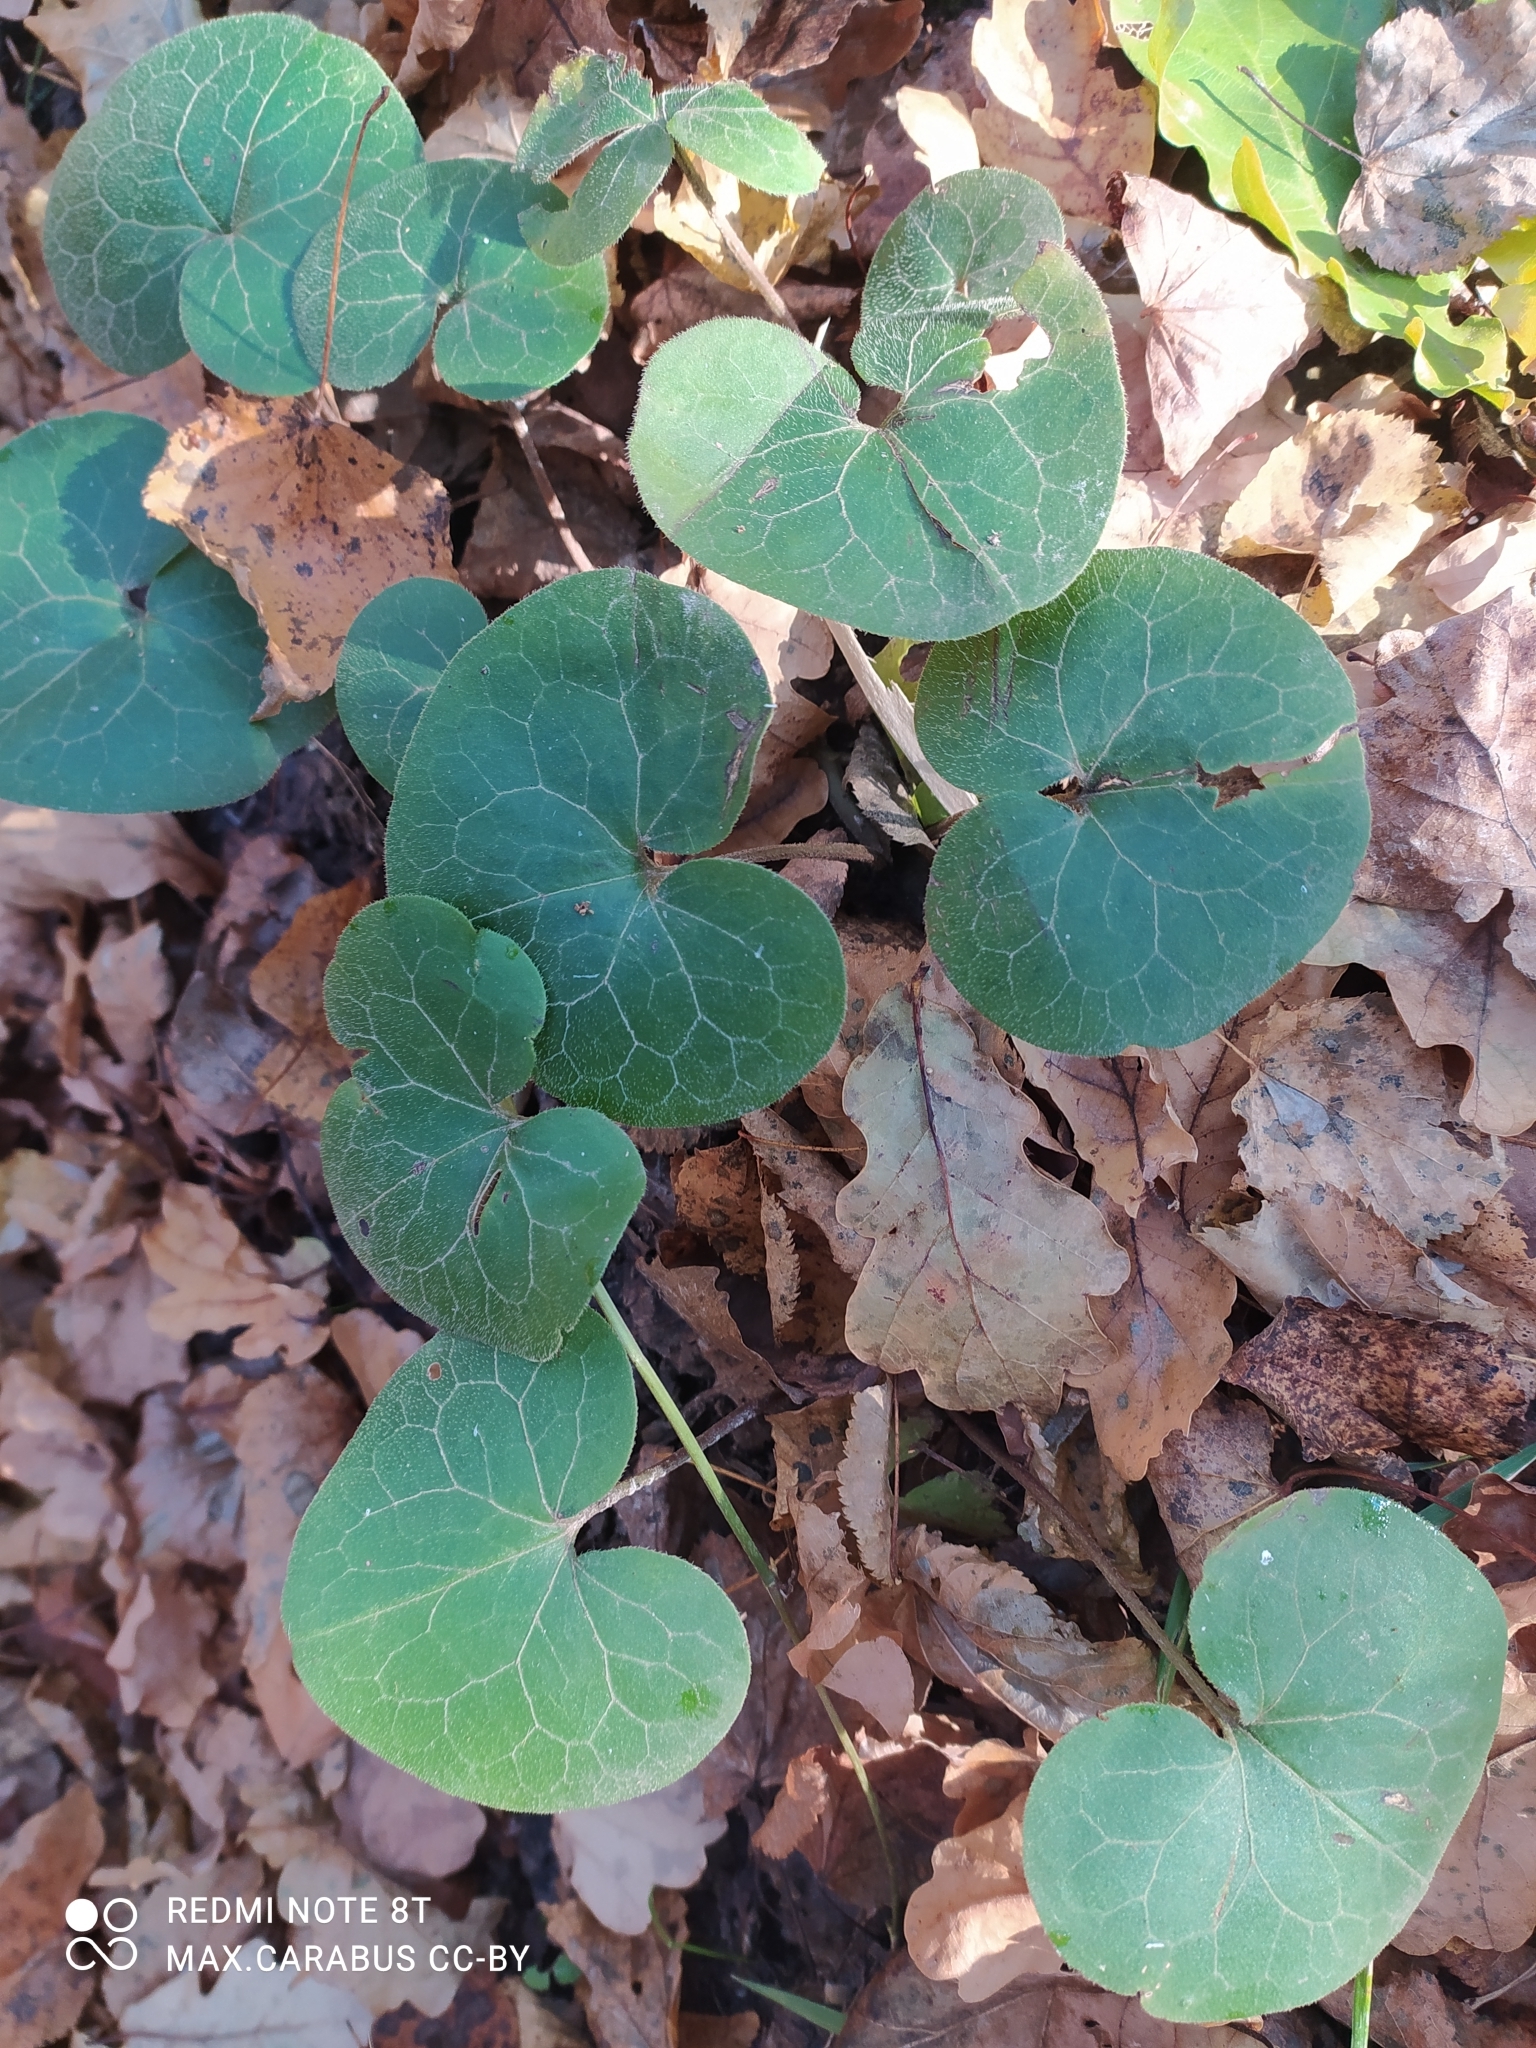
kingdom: Plantae
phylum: Tracheophyta
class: Magnoliopsida
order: Piperales
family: Aristolochiaceae
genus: Asarum
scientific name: Asarum europaeum
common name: Asarabacca
